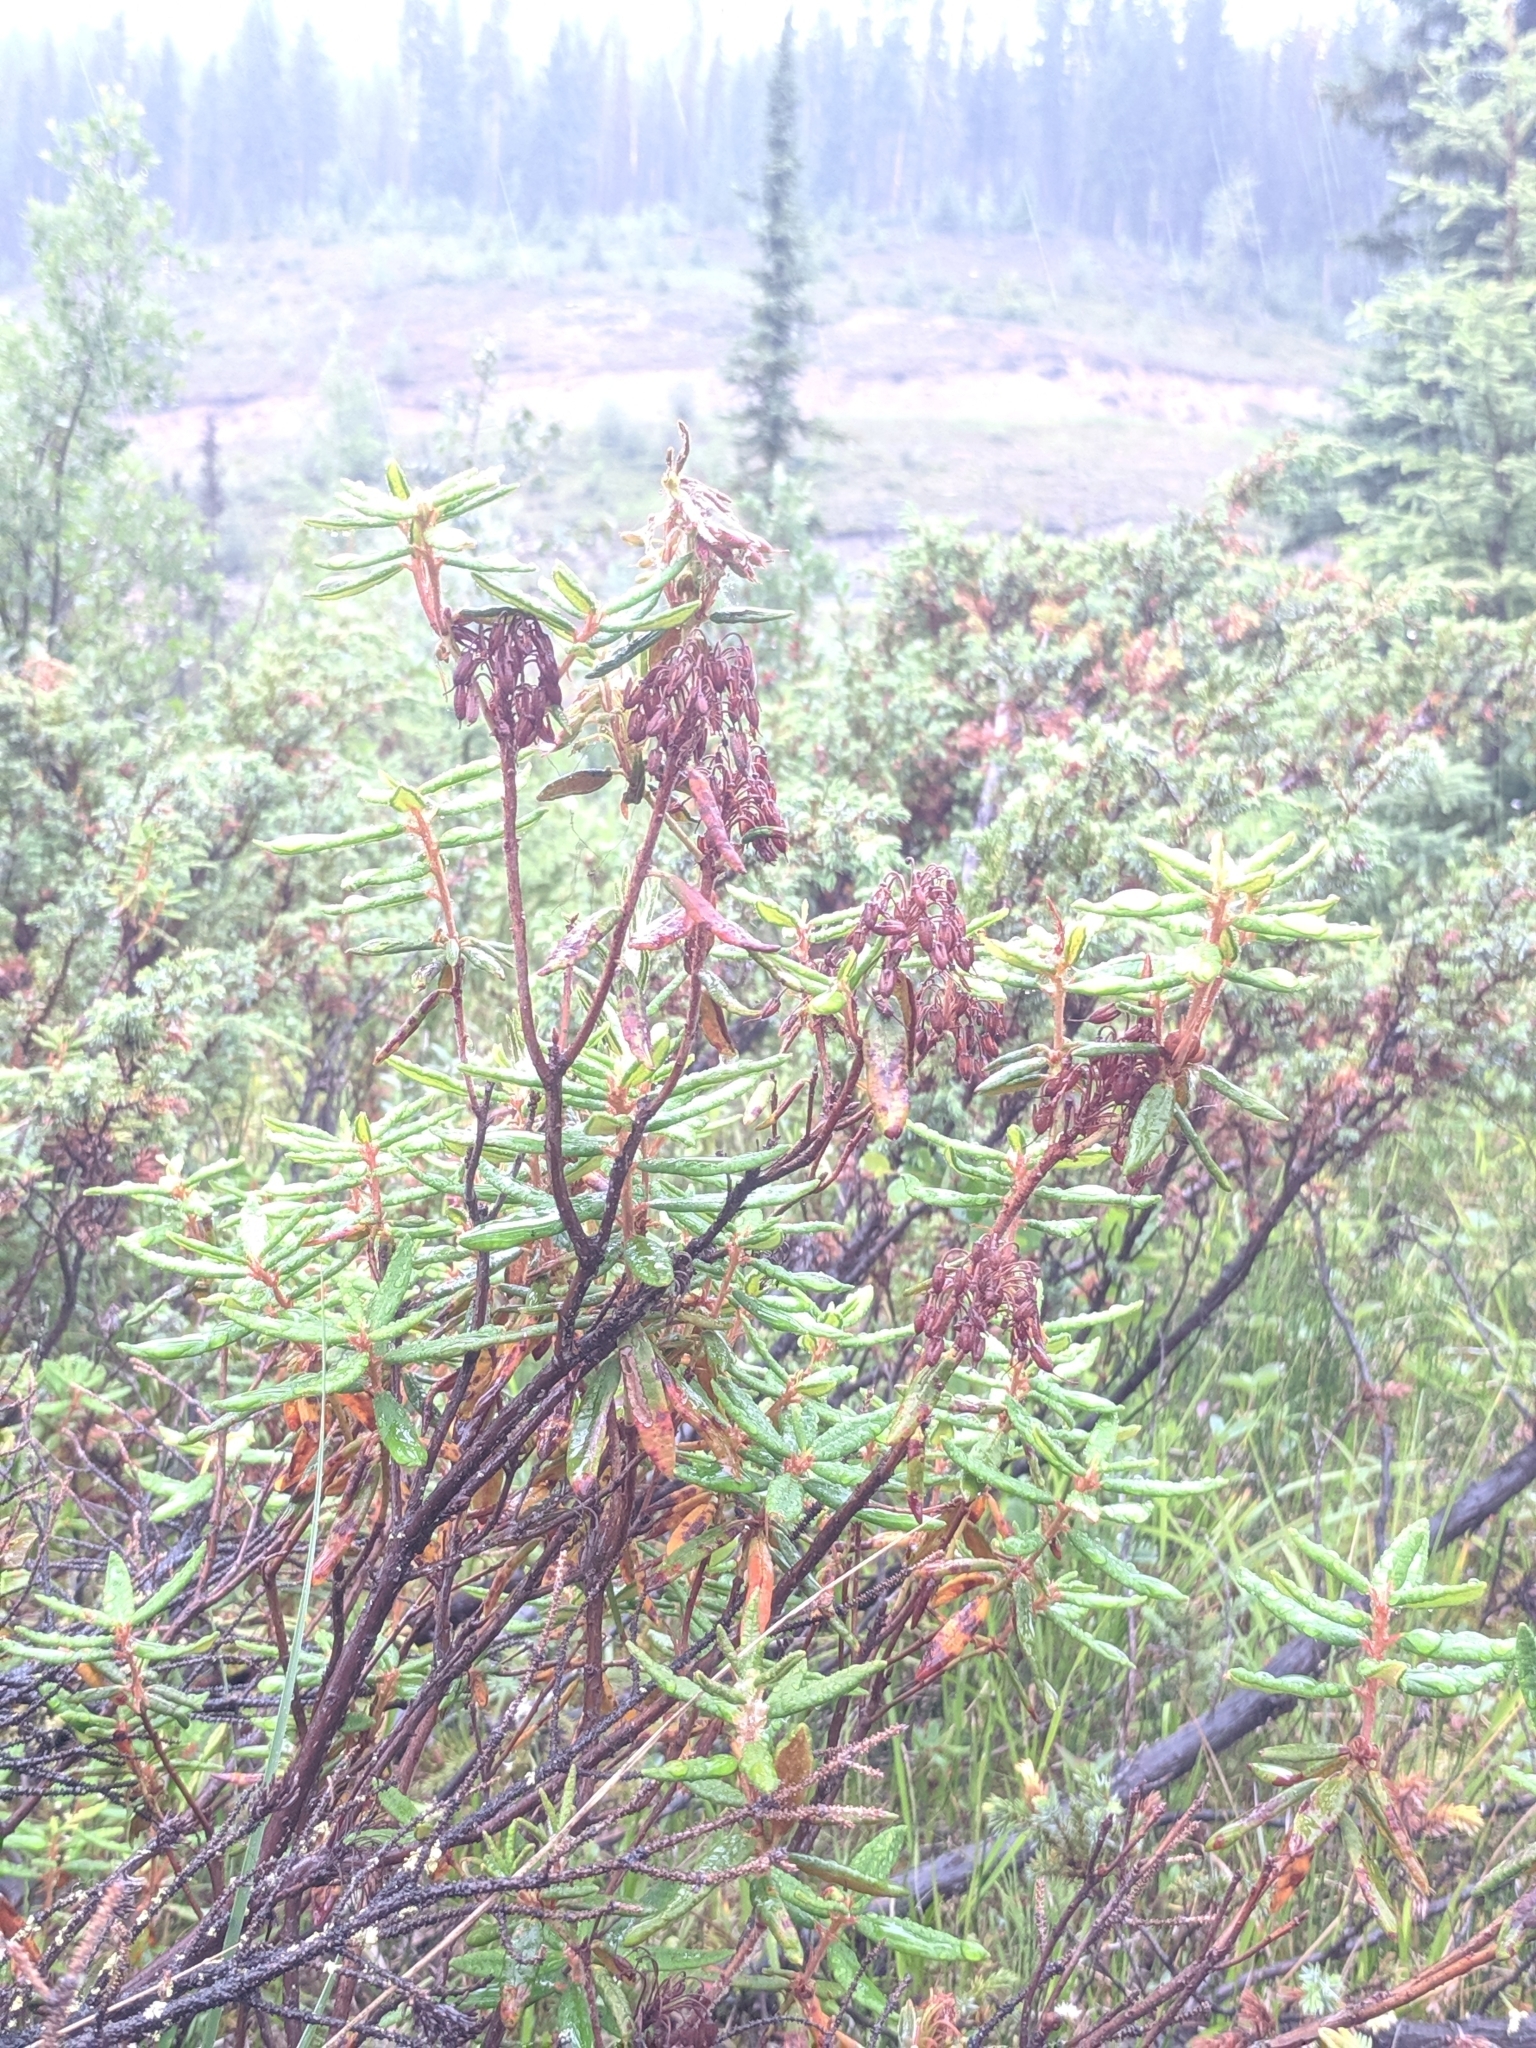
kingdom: Plantae
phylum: Tracheophyta
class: Magnoliopsida
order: Ericales
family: Ericaceae
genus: Rhododendron
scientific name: Rhododendron groenlandicum
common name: Bog labrador tea
